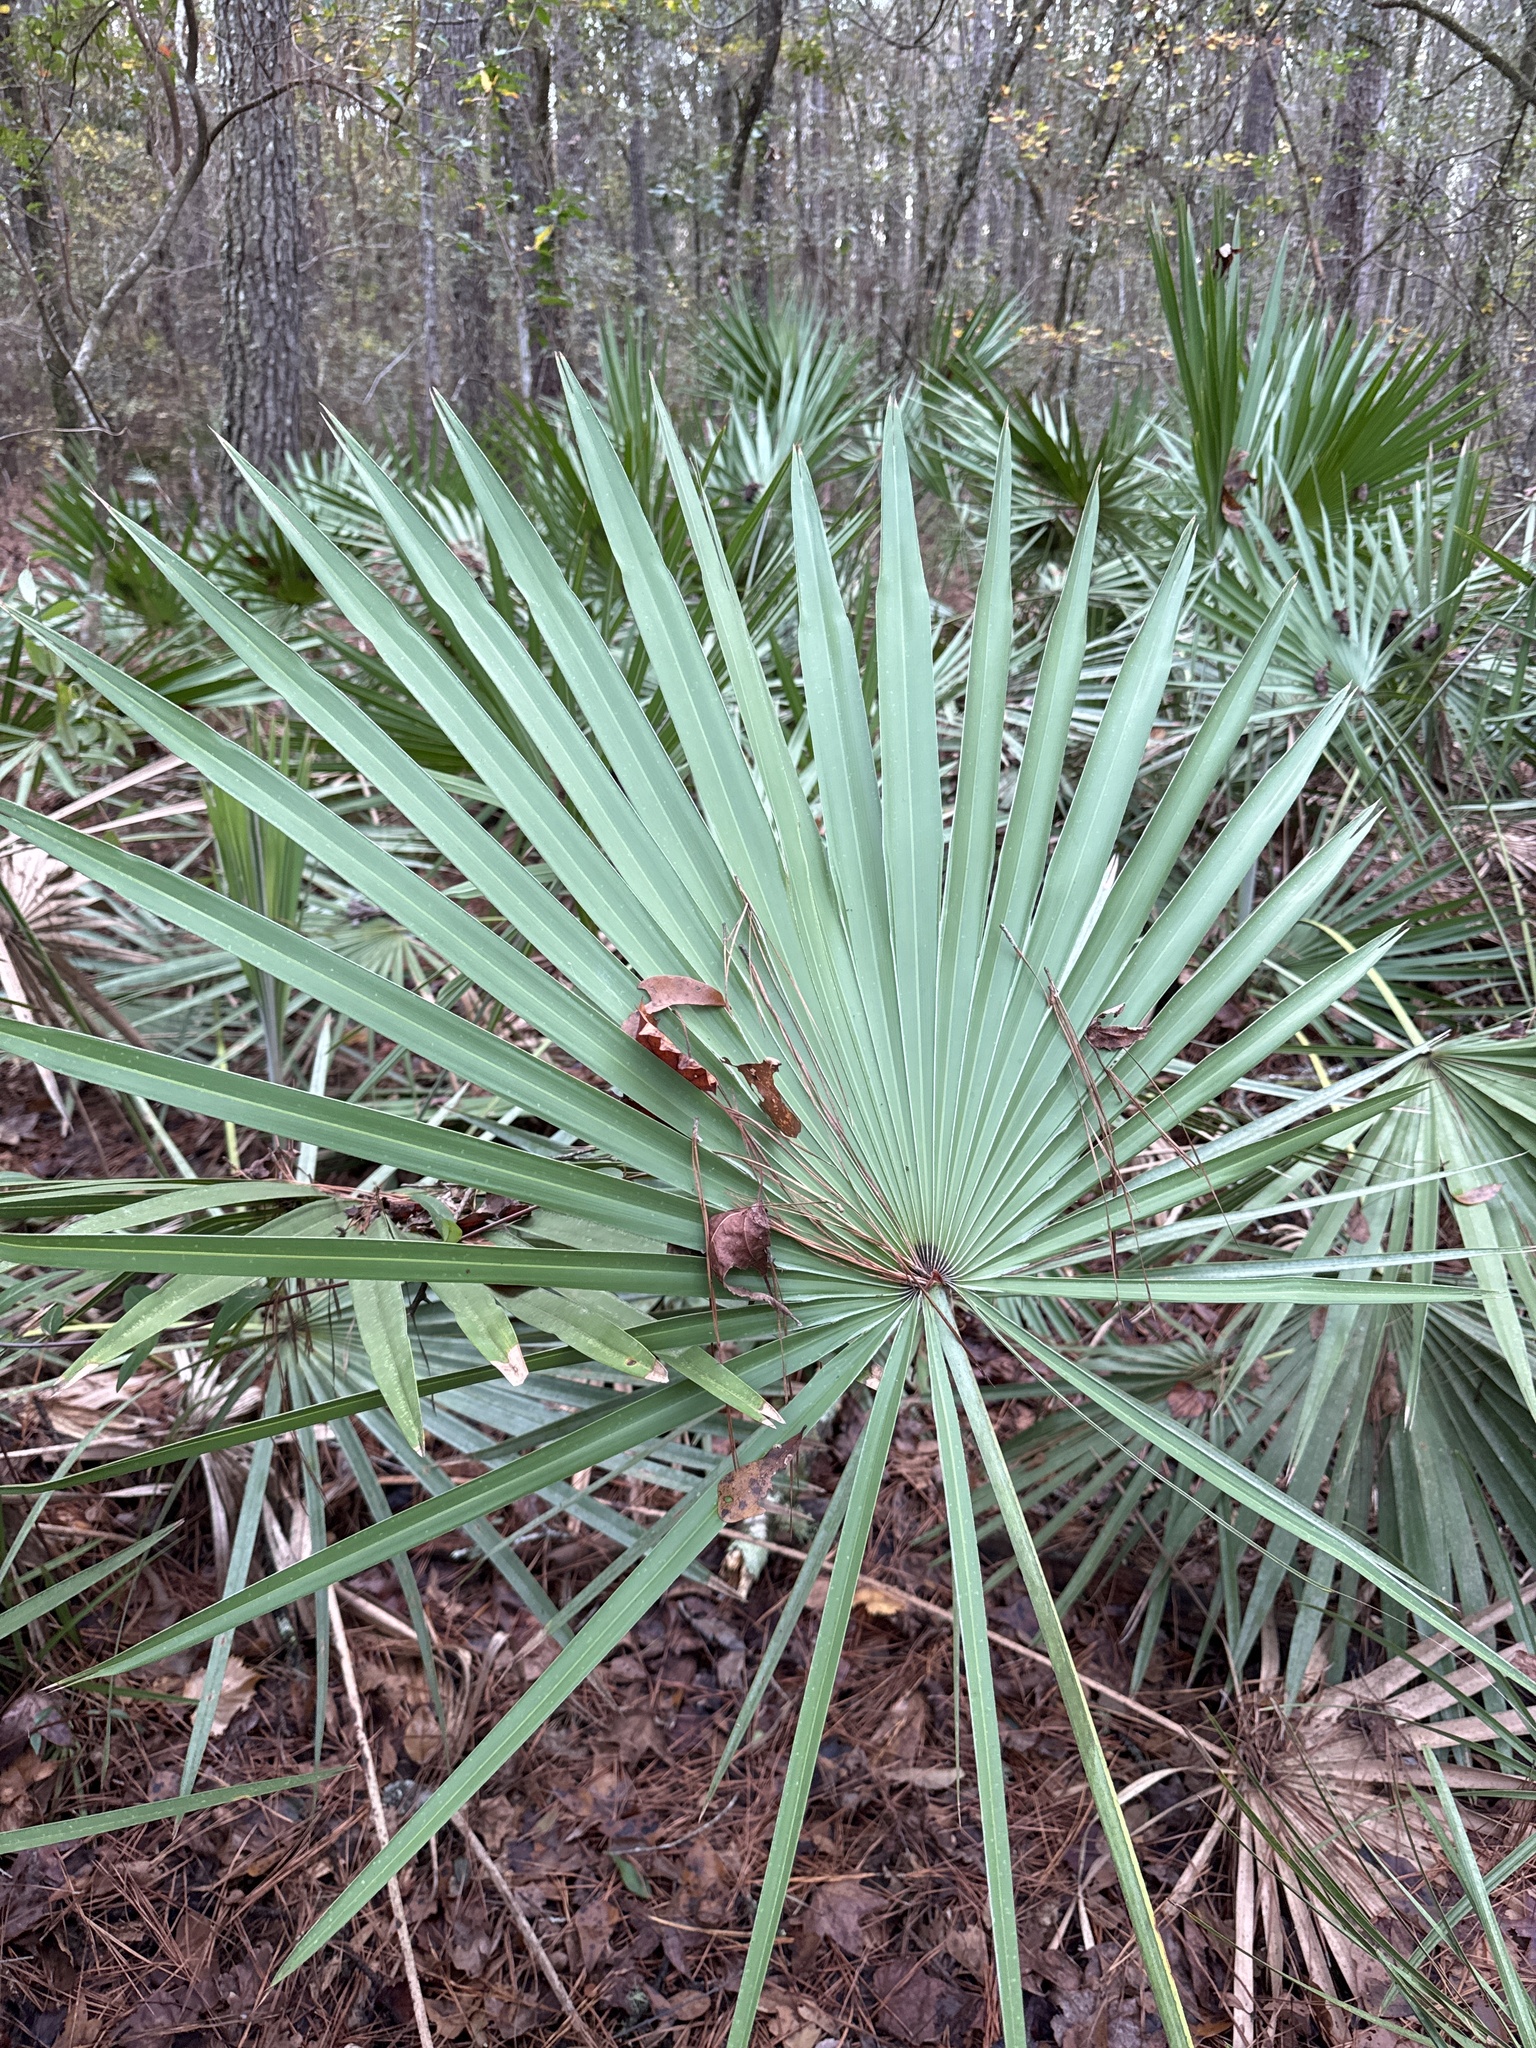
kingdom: Plantae
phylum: Tracheophyta
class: Liliopsida
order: Arecales
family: Arecaceae
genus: Serenoa
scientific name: Serenoa repens
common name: Saw-palmetto
